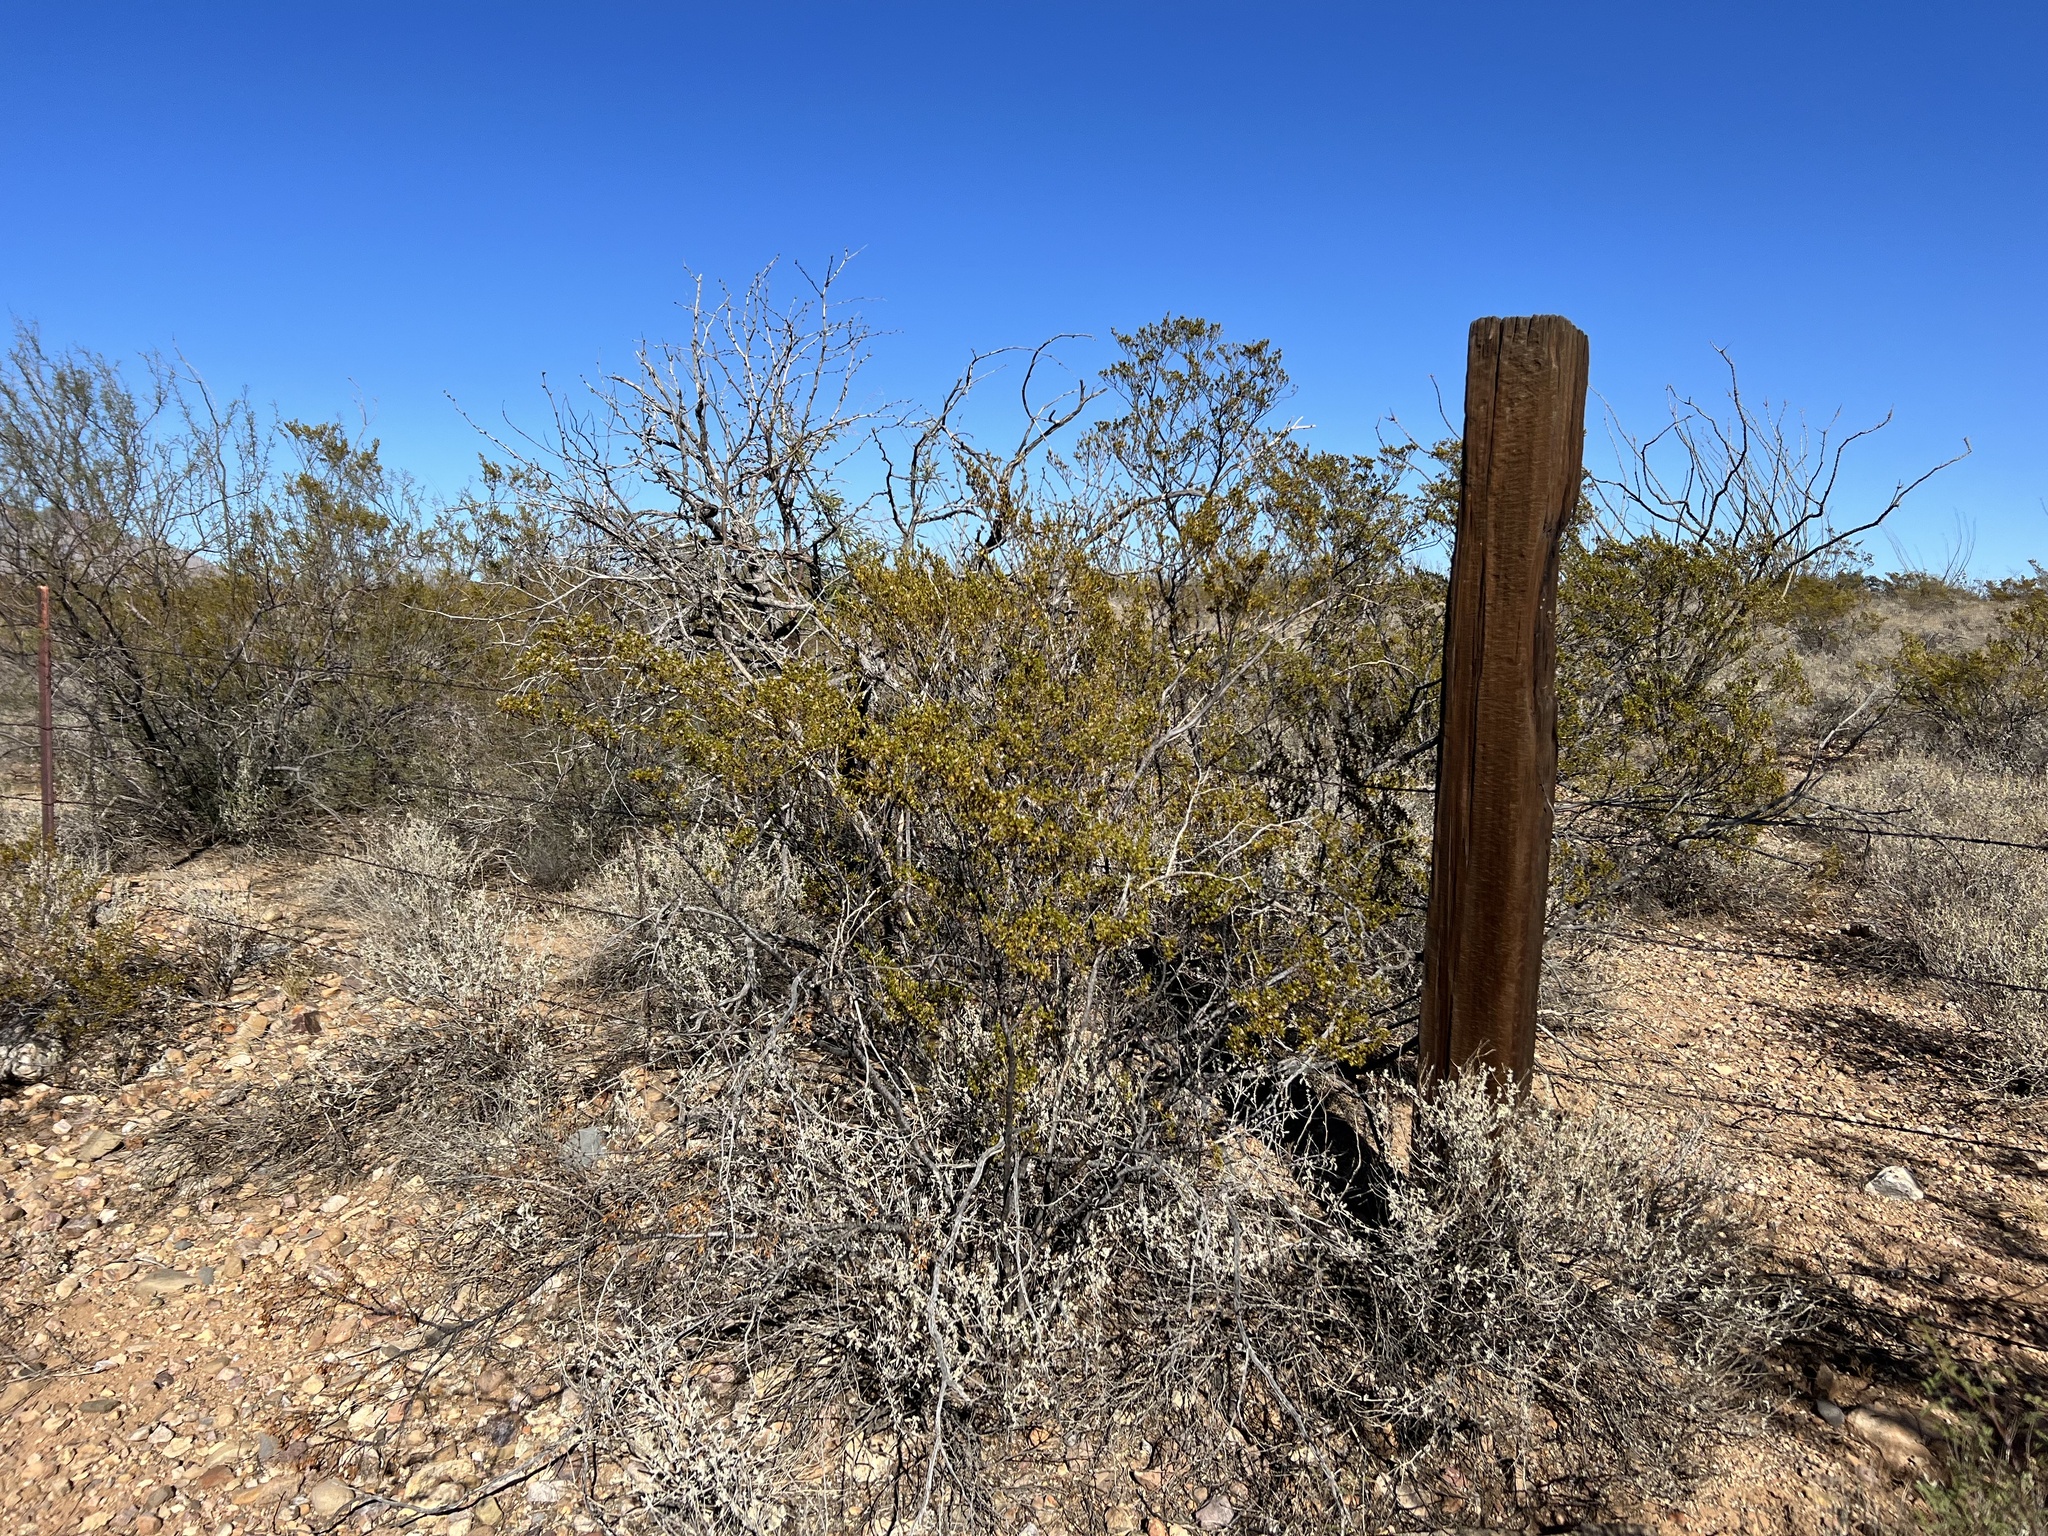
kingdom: Plantae
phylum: Tracheophyta
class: Magnoliopsida
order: Zygophyllales
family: Zygophyllaceae
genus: Larrea
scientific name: Larrea tridentata
